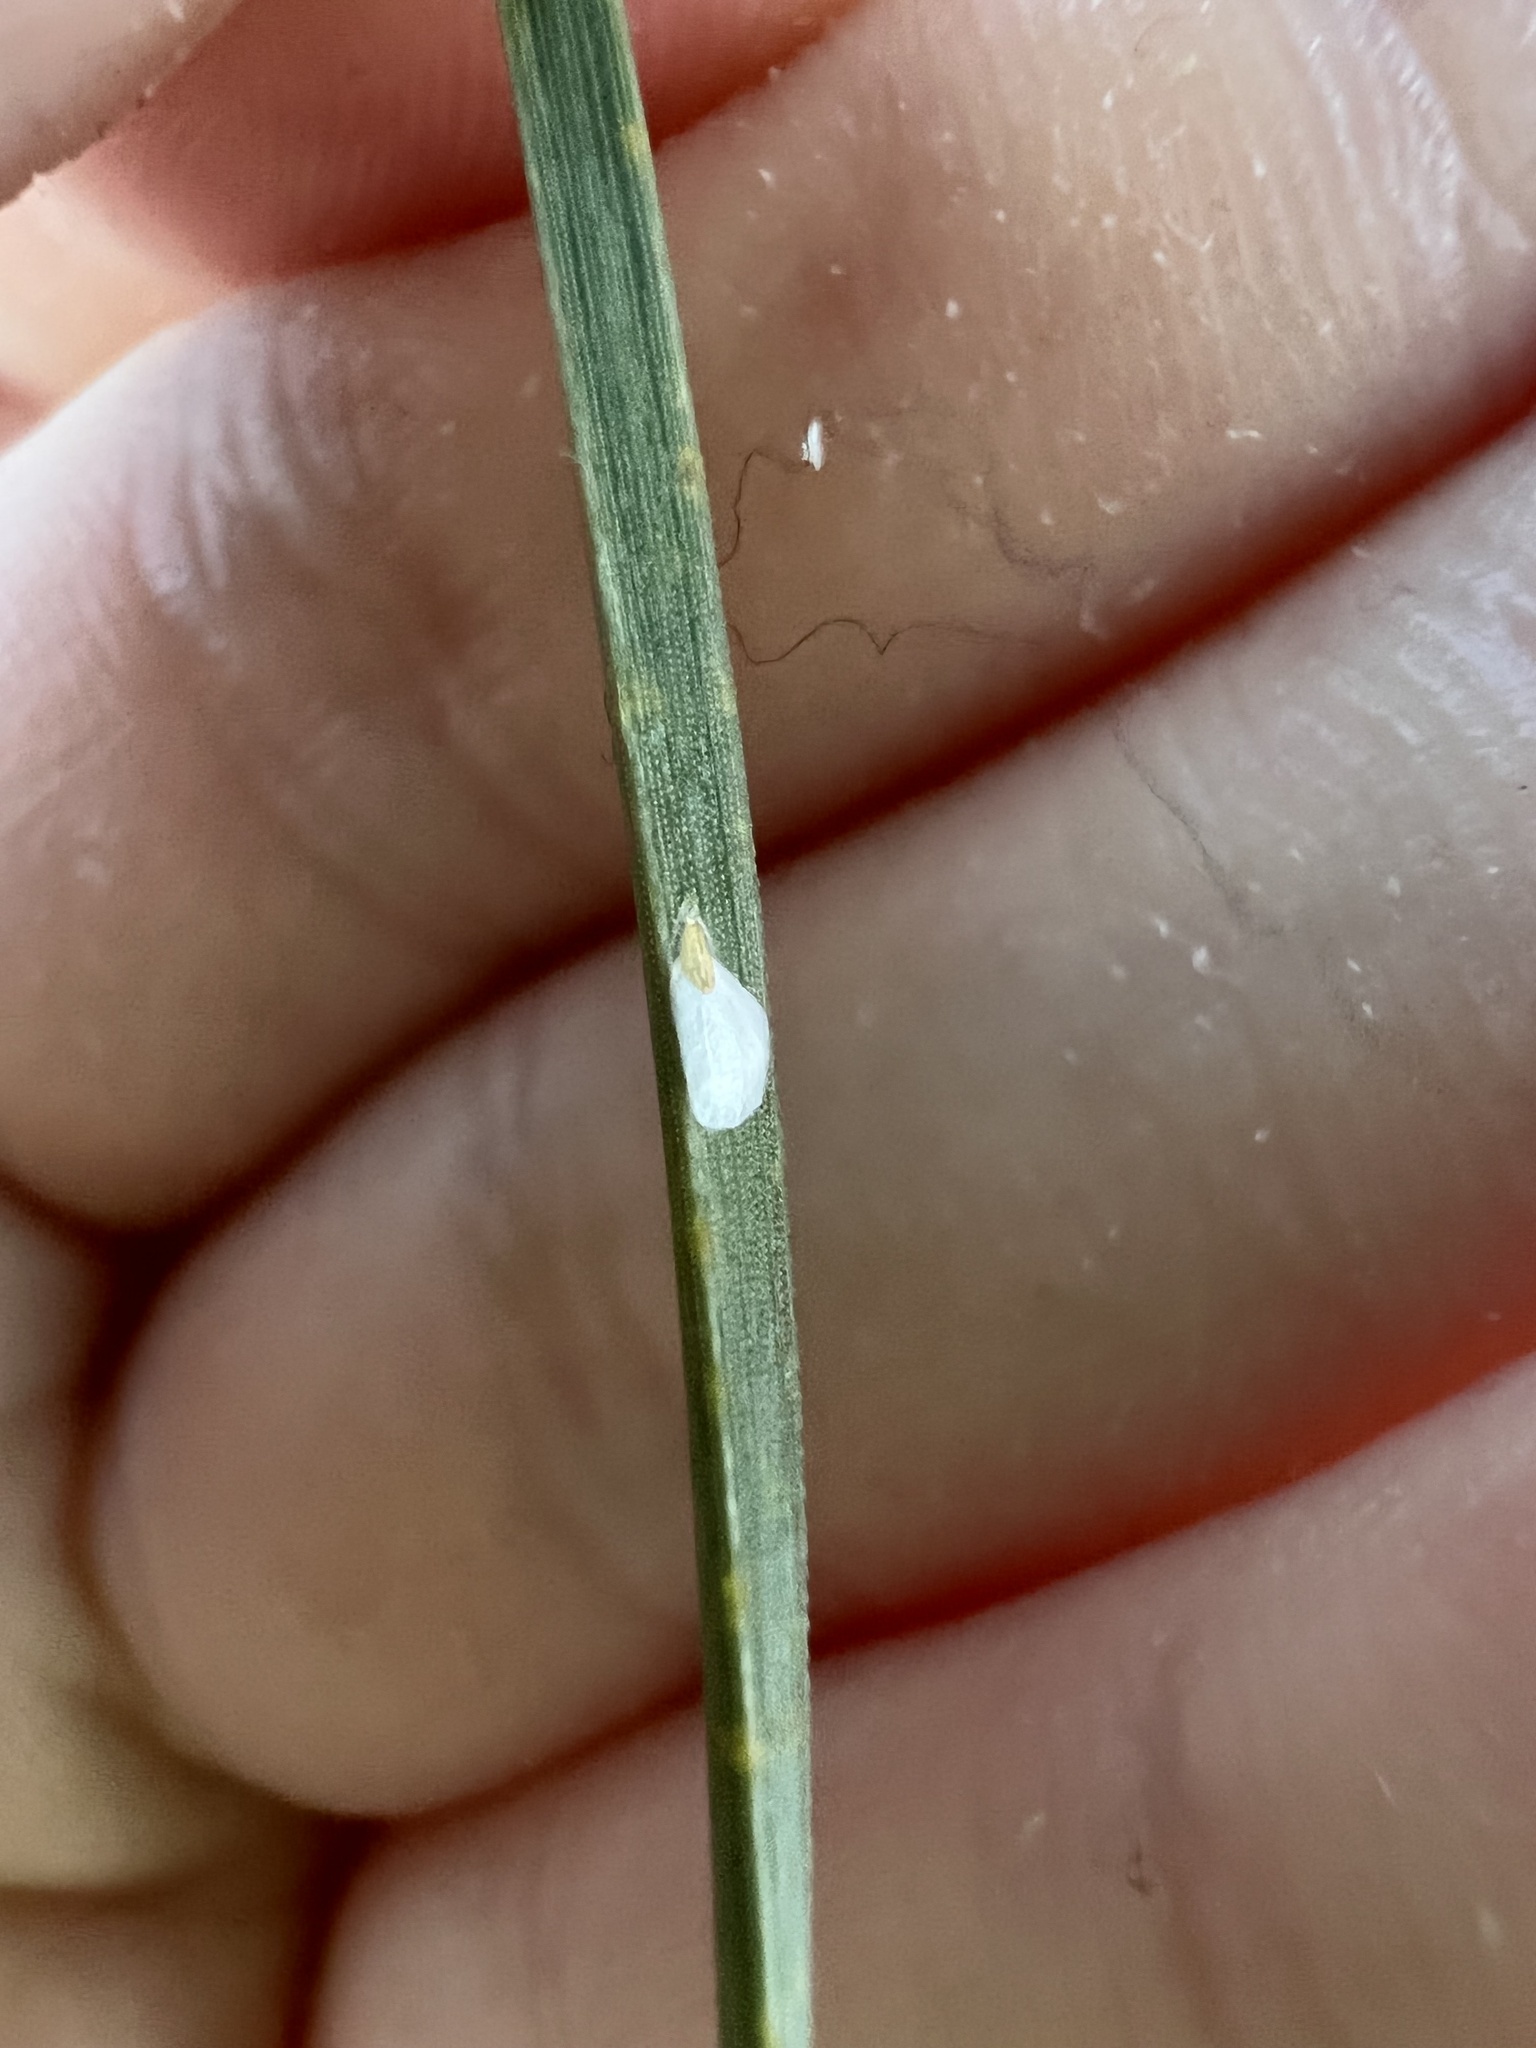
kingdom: Animalia
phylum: Arthropoda
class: Insecta
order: Hemiptera
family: Diaspididae
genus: Chionaspis
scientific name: Chionaspis pinifoliae
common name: Pine leaf scale
